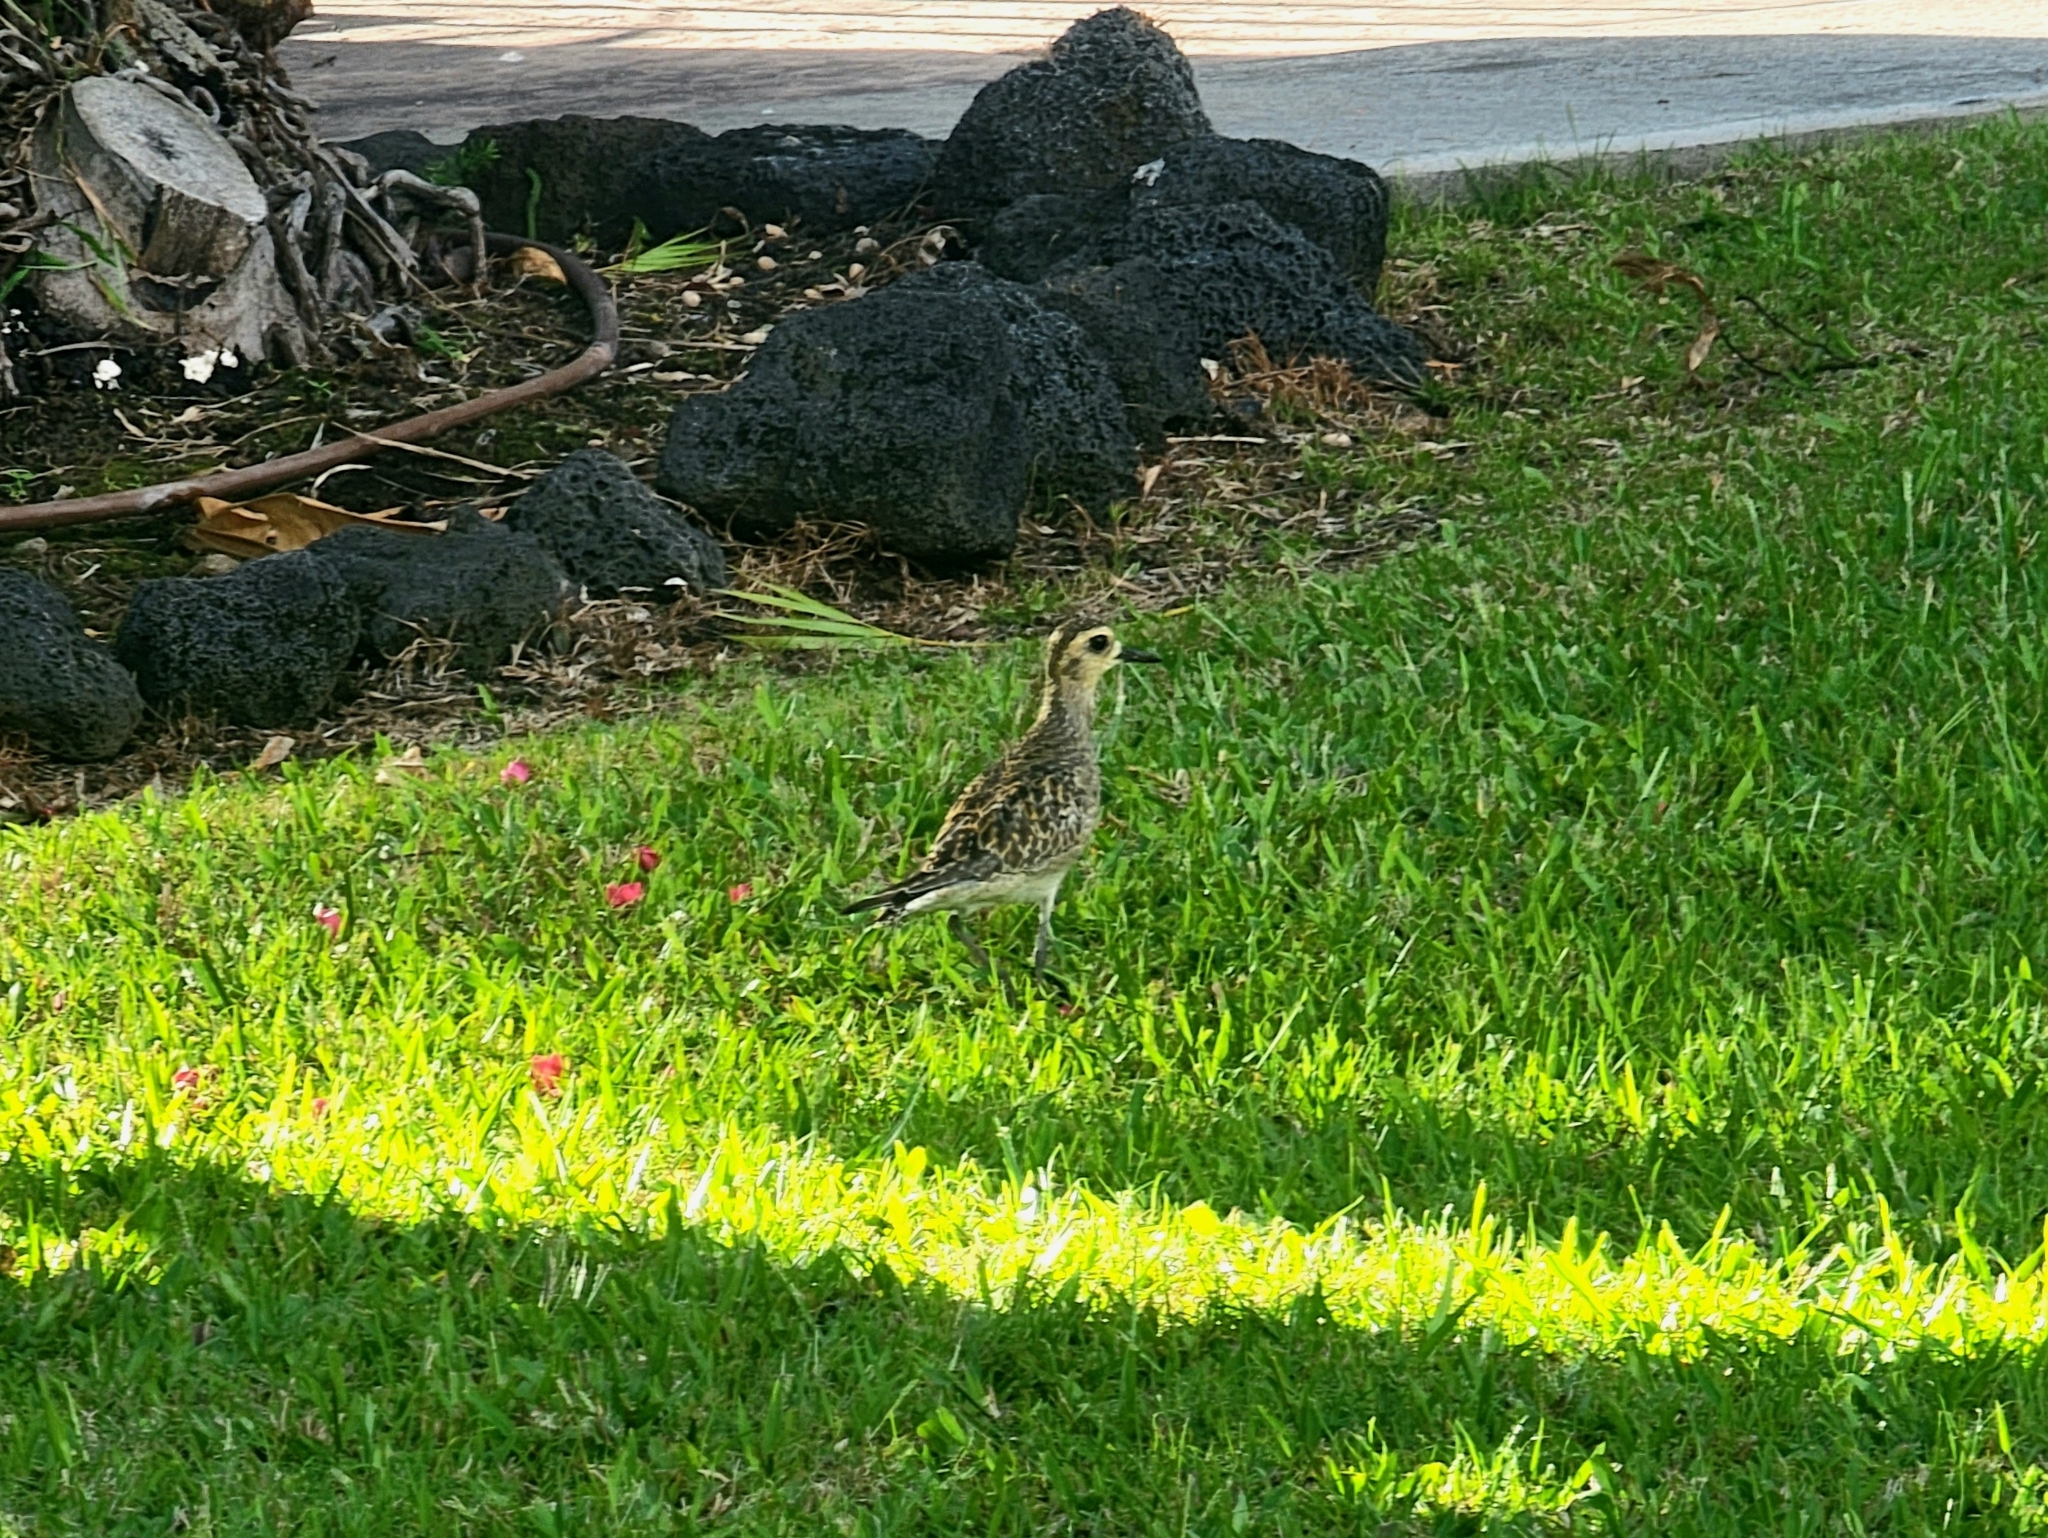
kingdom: Animalia
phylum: Chordata
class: Aves
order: Charadriiformes
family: Charadriidae
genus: Pluvialis
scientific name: Pluvialis fulva
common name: Pacific golden plover
